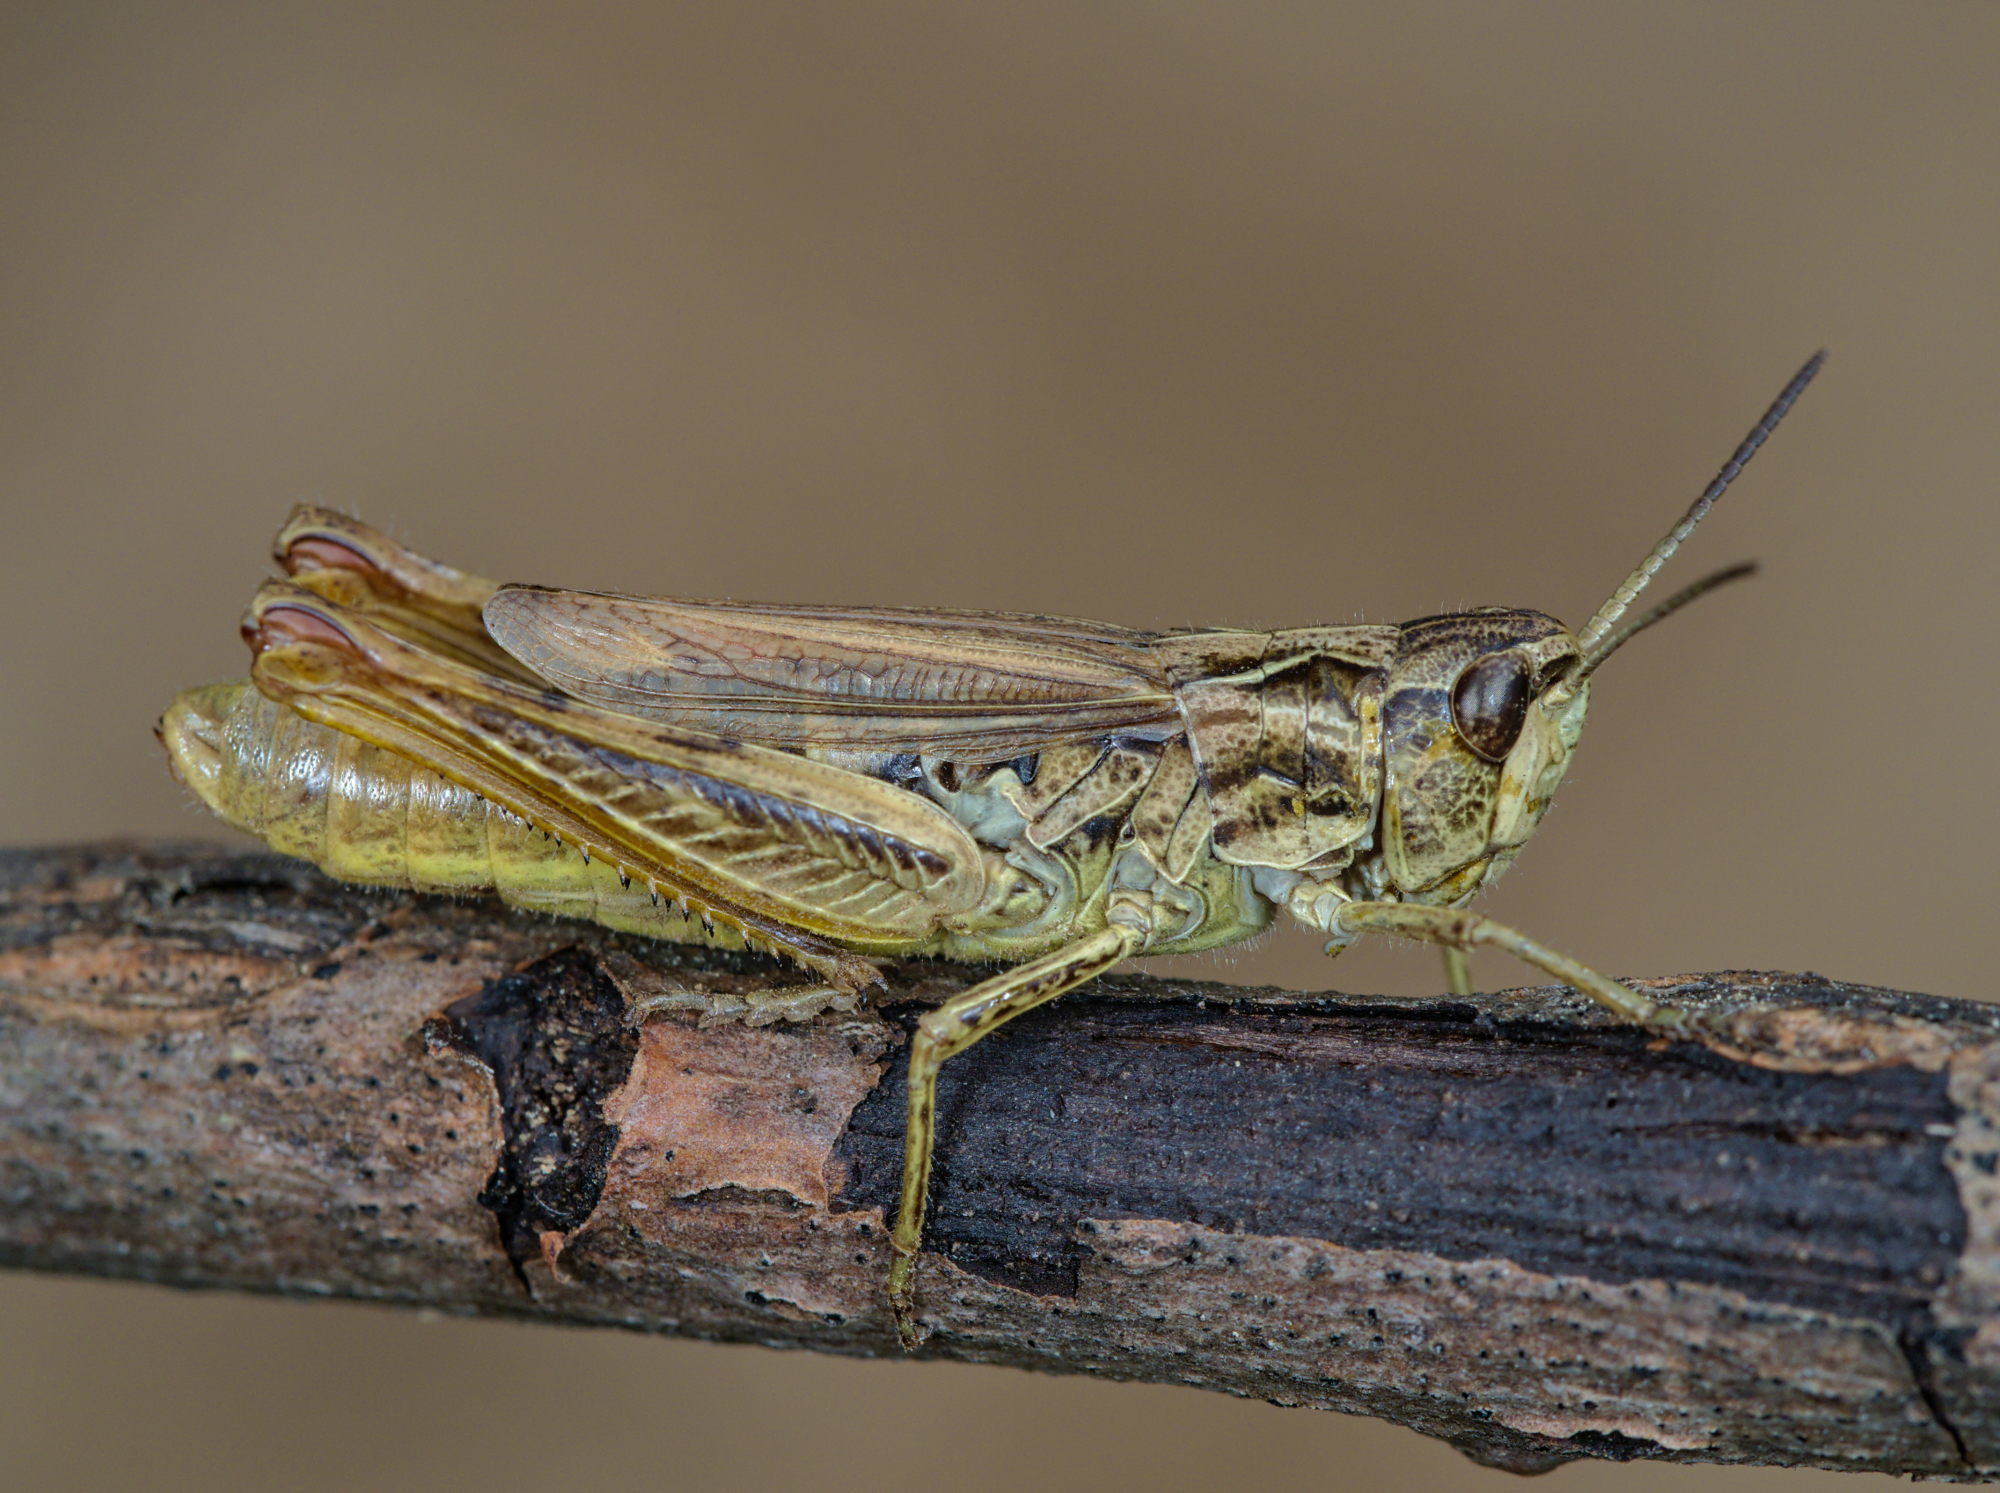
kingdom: Animalia
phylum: Arthropoda
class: Insecta
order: Orthoptera
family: Acrididae
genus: Chorthippus
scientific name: Chorthippus apricarius
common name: Upland field grasshopper
